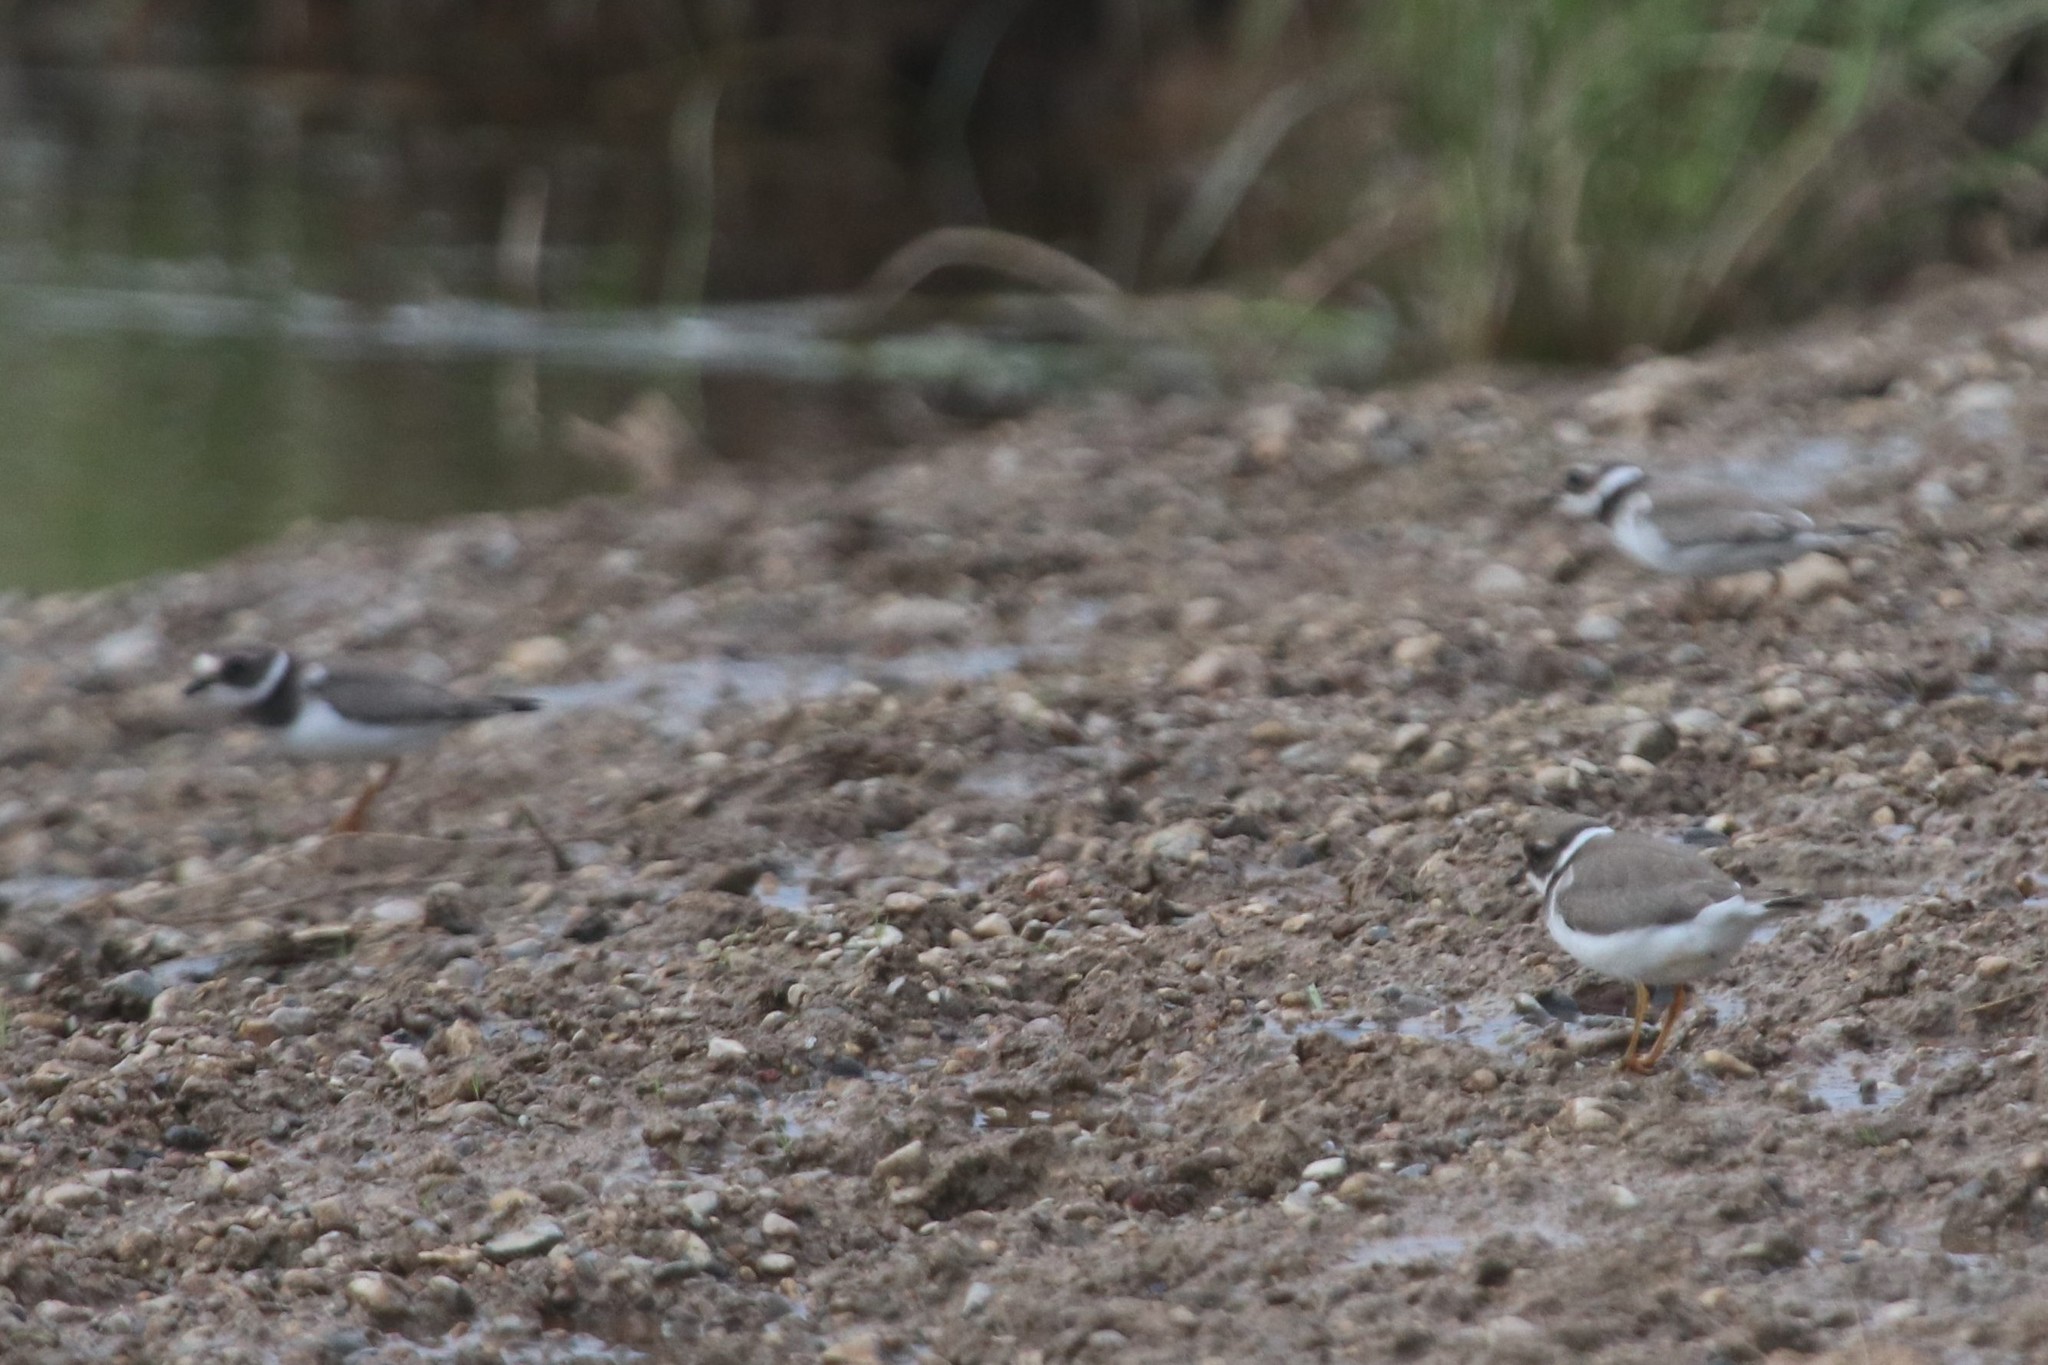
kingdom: Animalia
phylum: Chordata
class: Aves
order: Charadriiformes
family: Charadriidae
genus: Charadrius
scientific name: Charadrius hiaticula
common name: Common ringed plover
